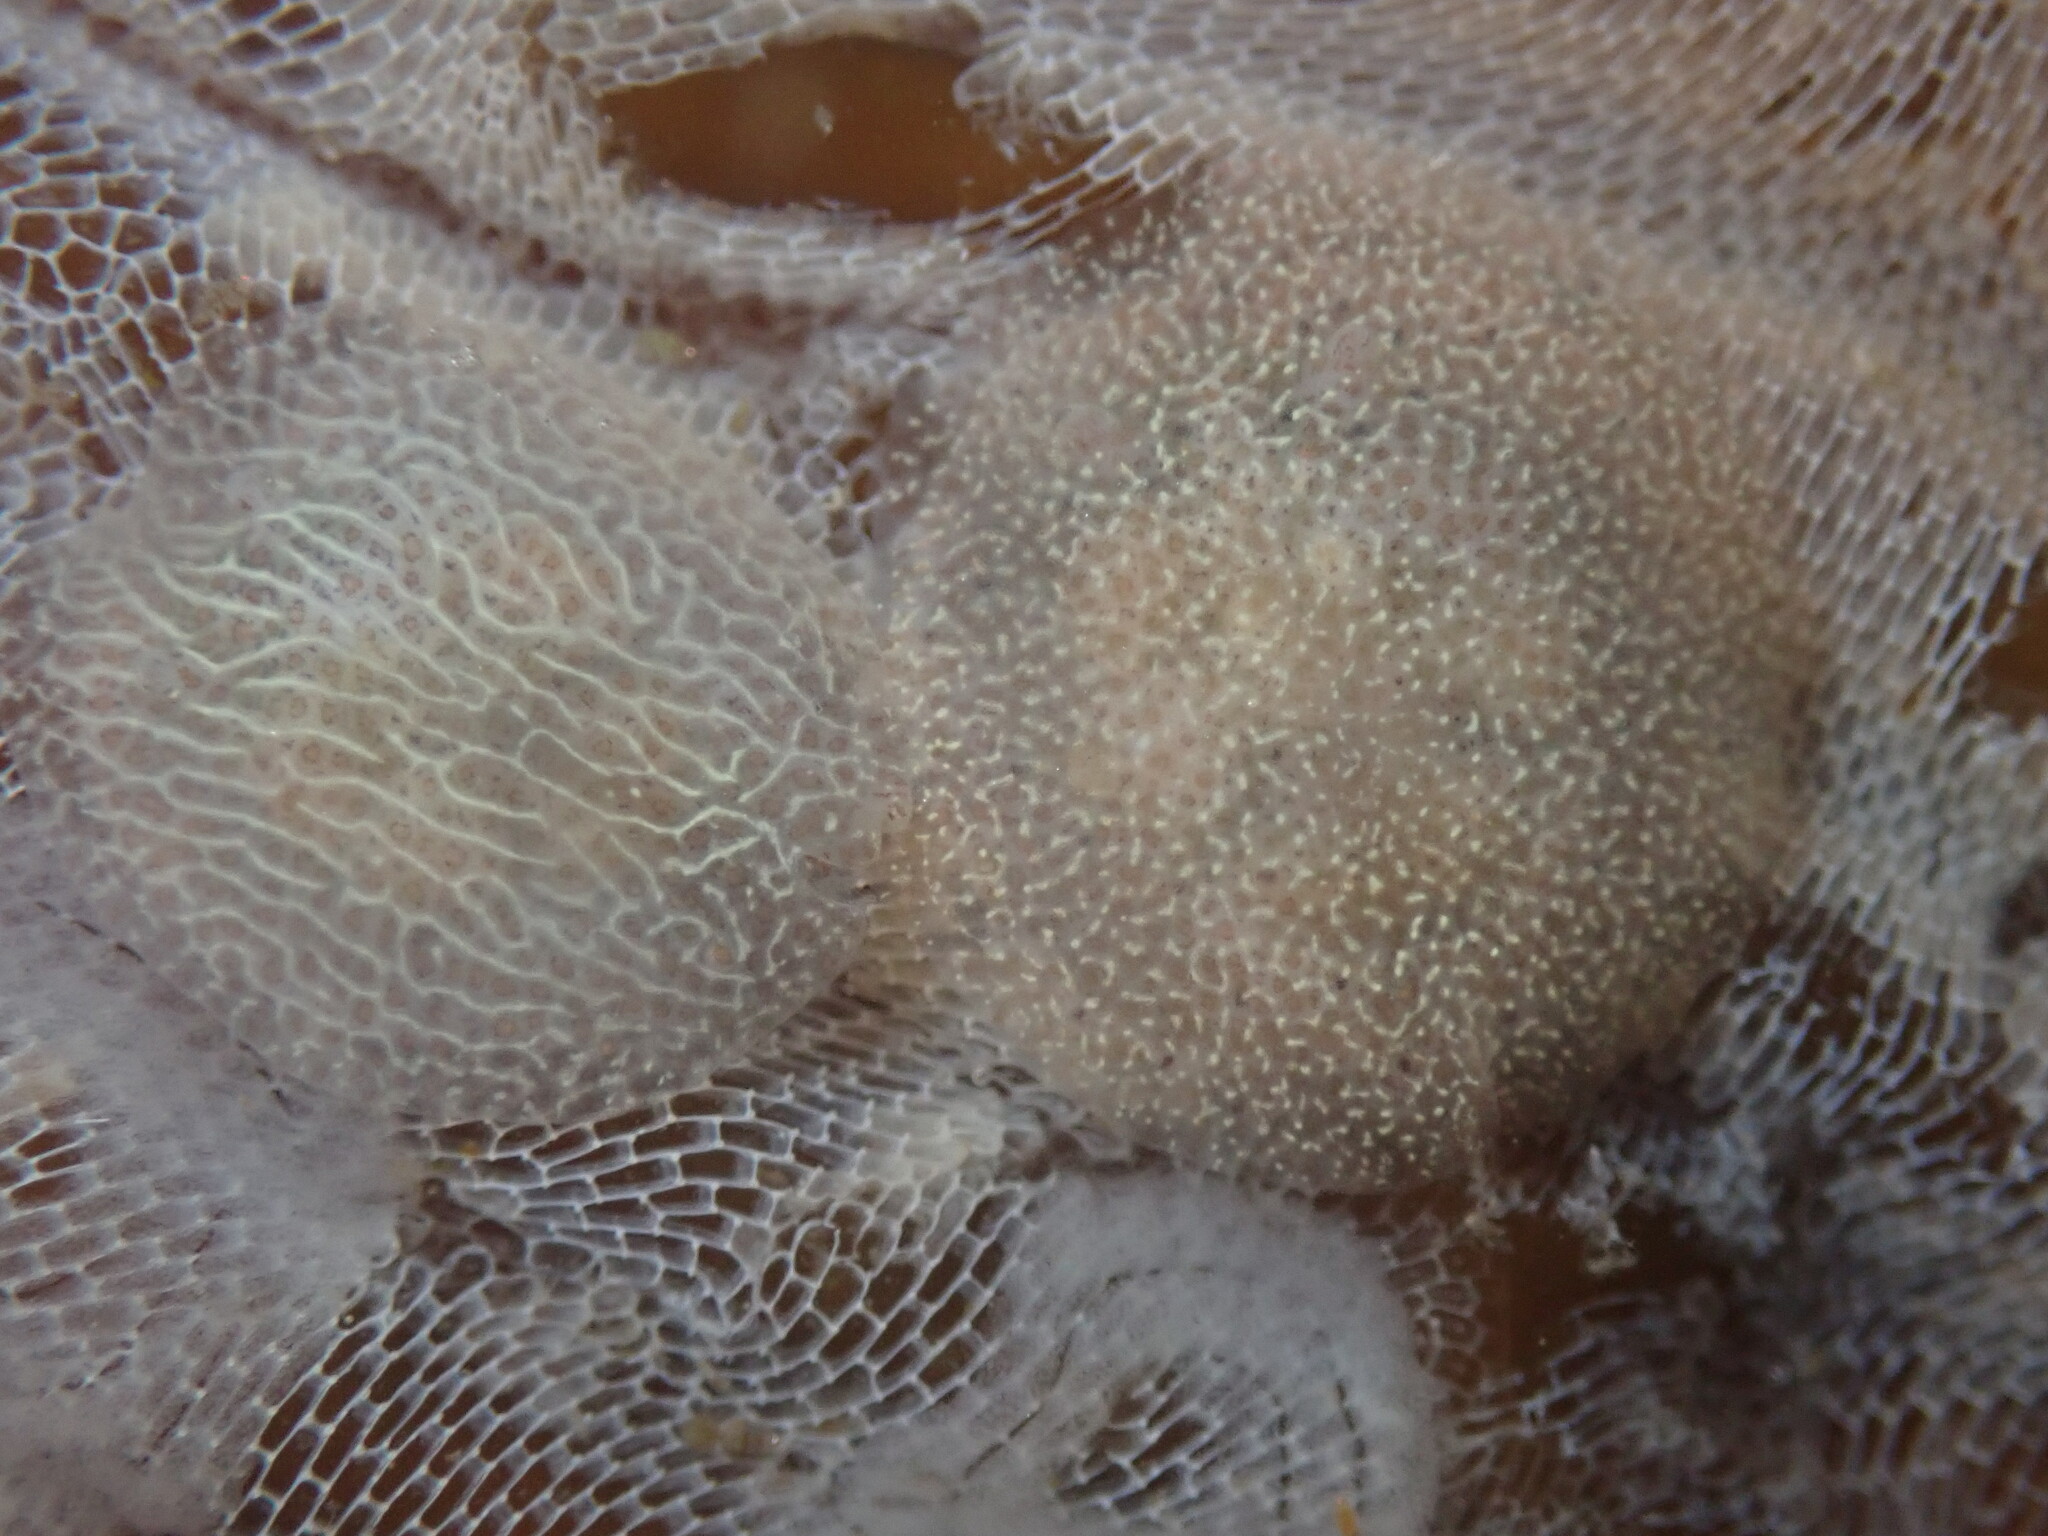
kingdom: Animalia
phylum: Mollusca
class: Gastropoda
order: Nudibranchia
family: Corambidae
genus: Corambe
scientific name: Corambe pacifica
